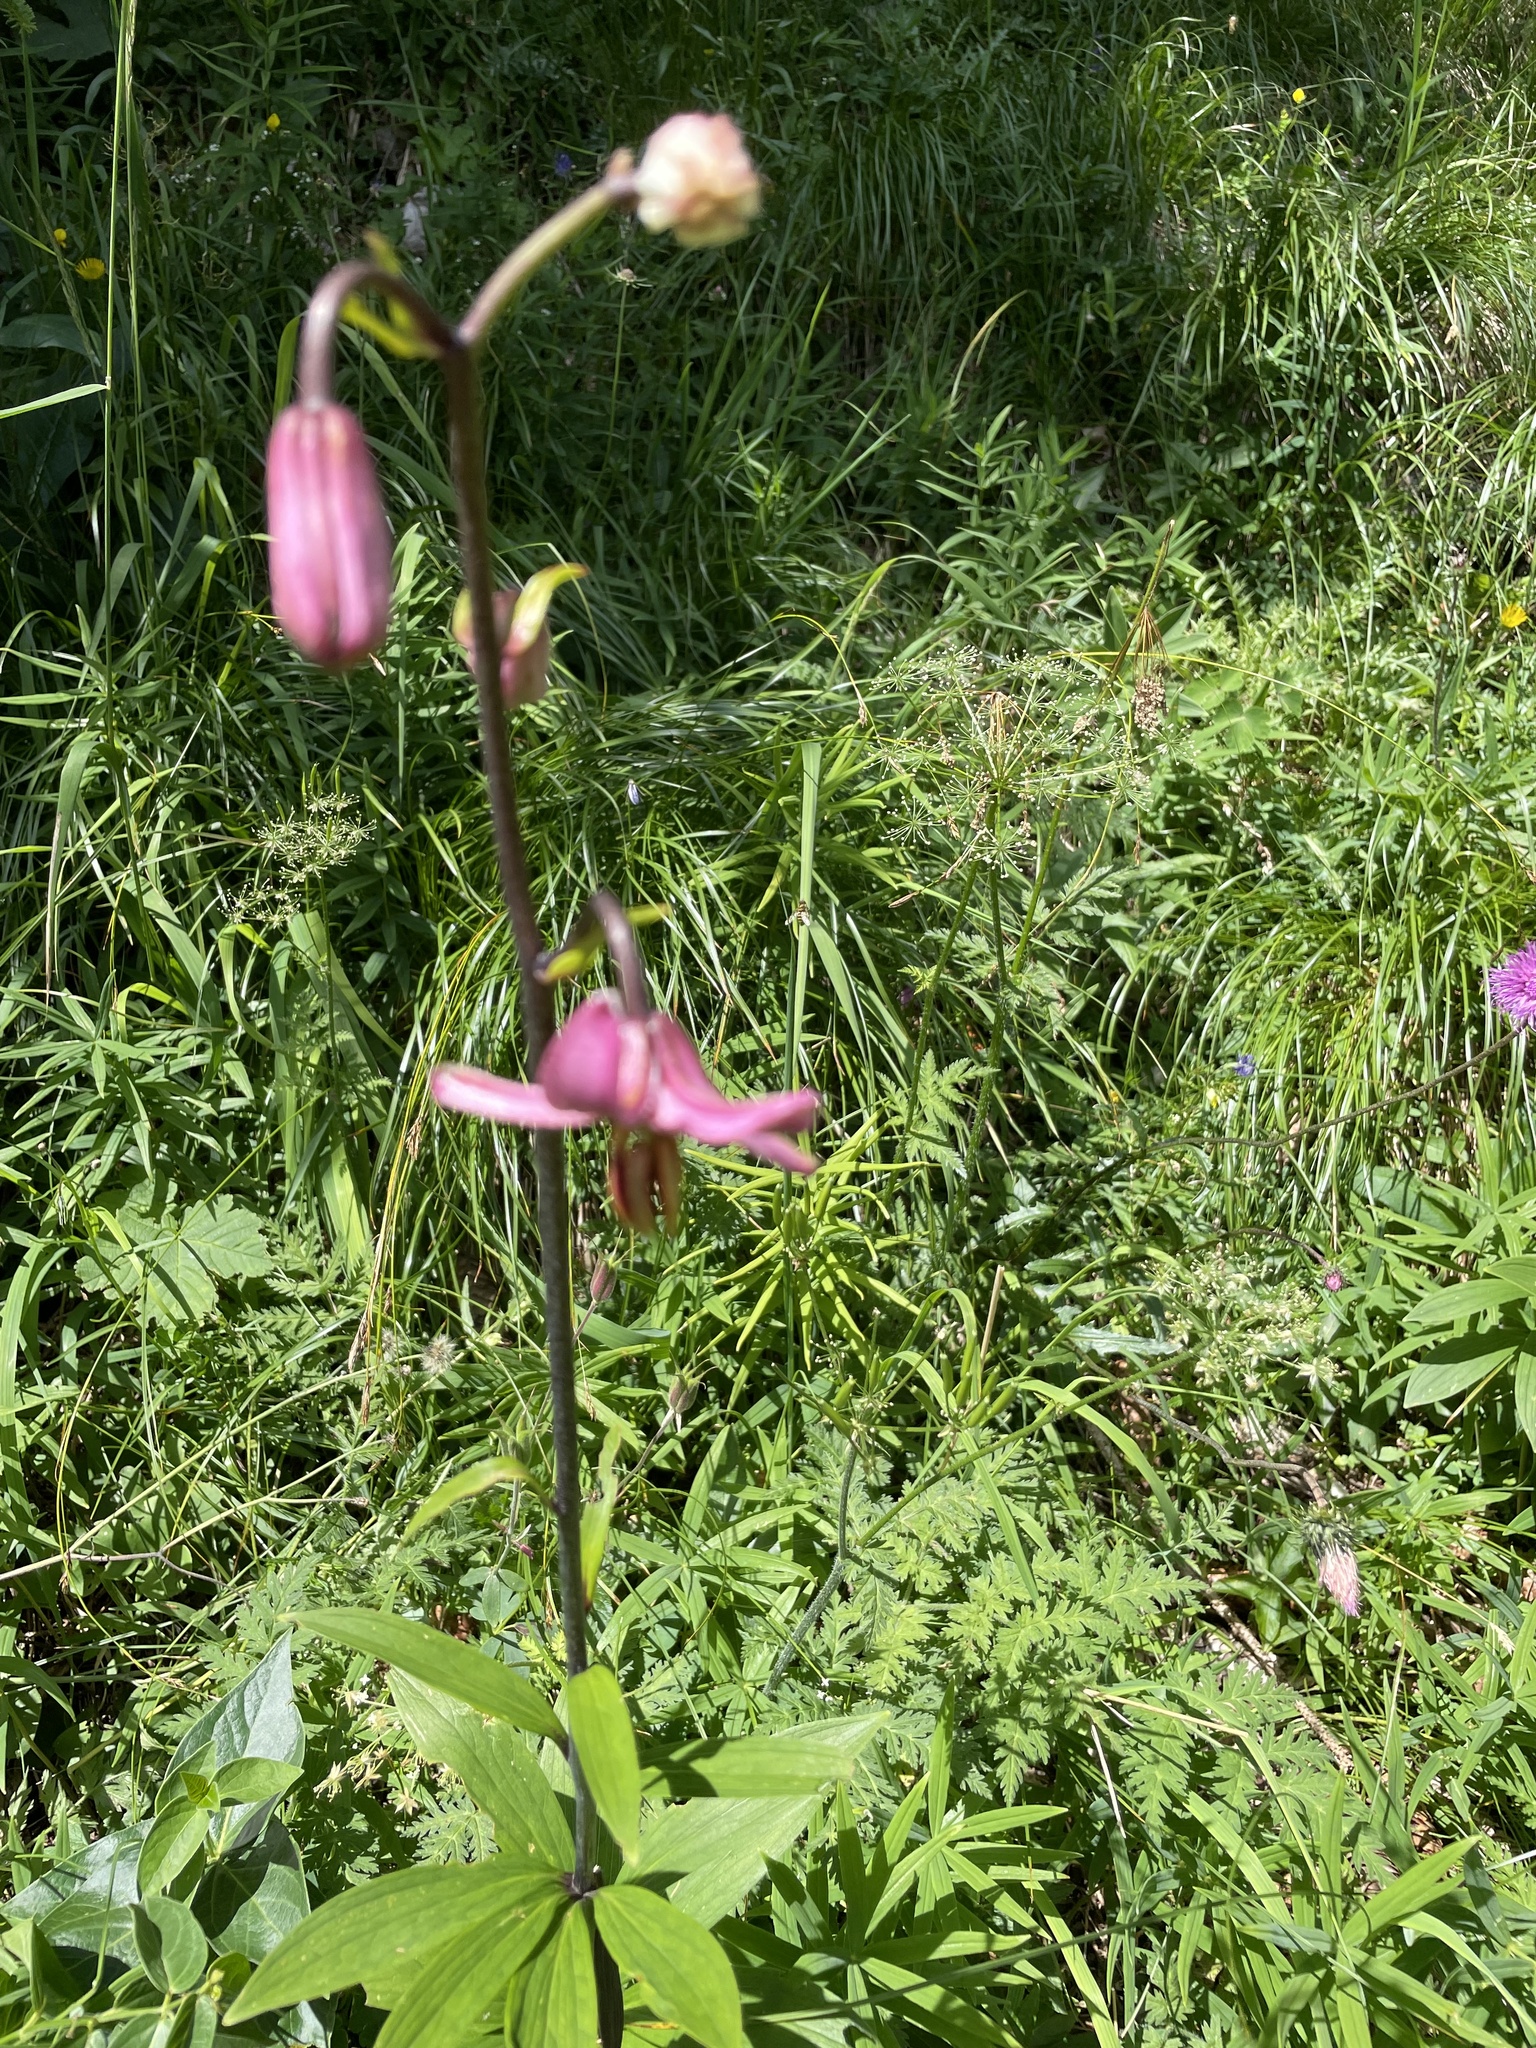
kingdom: Plantae
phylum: Tracheophyta
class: Liliopsida
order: Liliales
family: Liliaceae
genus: Lilium
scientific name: Lilium martagon
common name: Martagon lily
